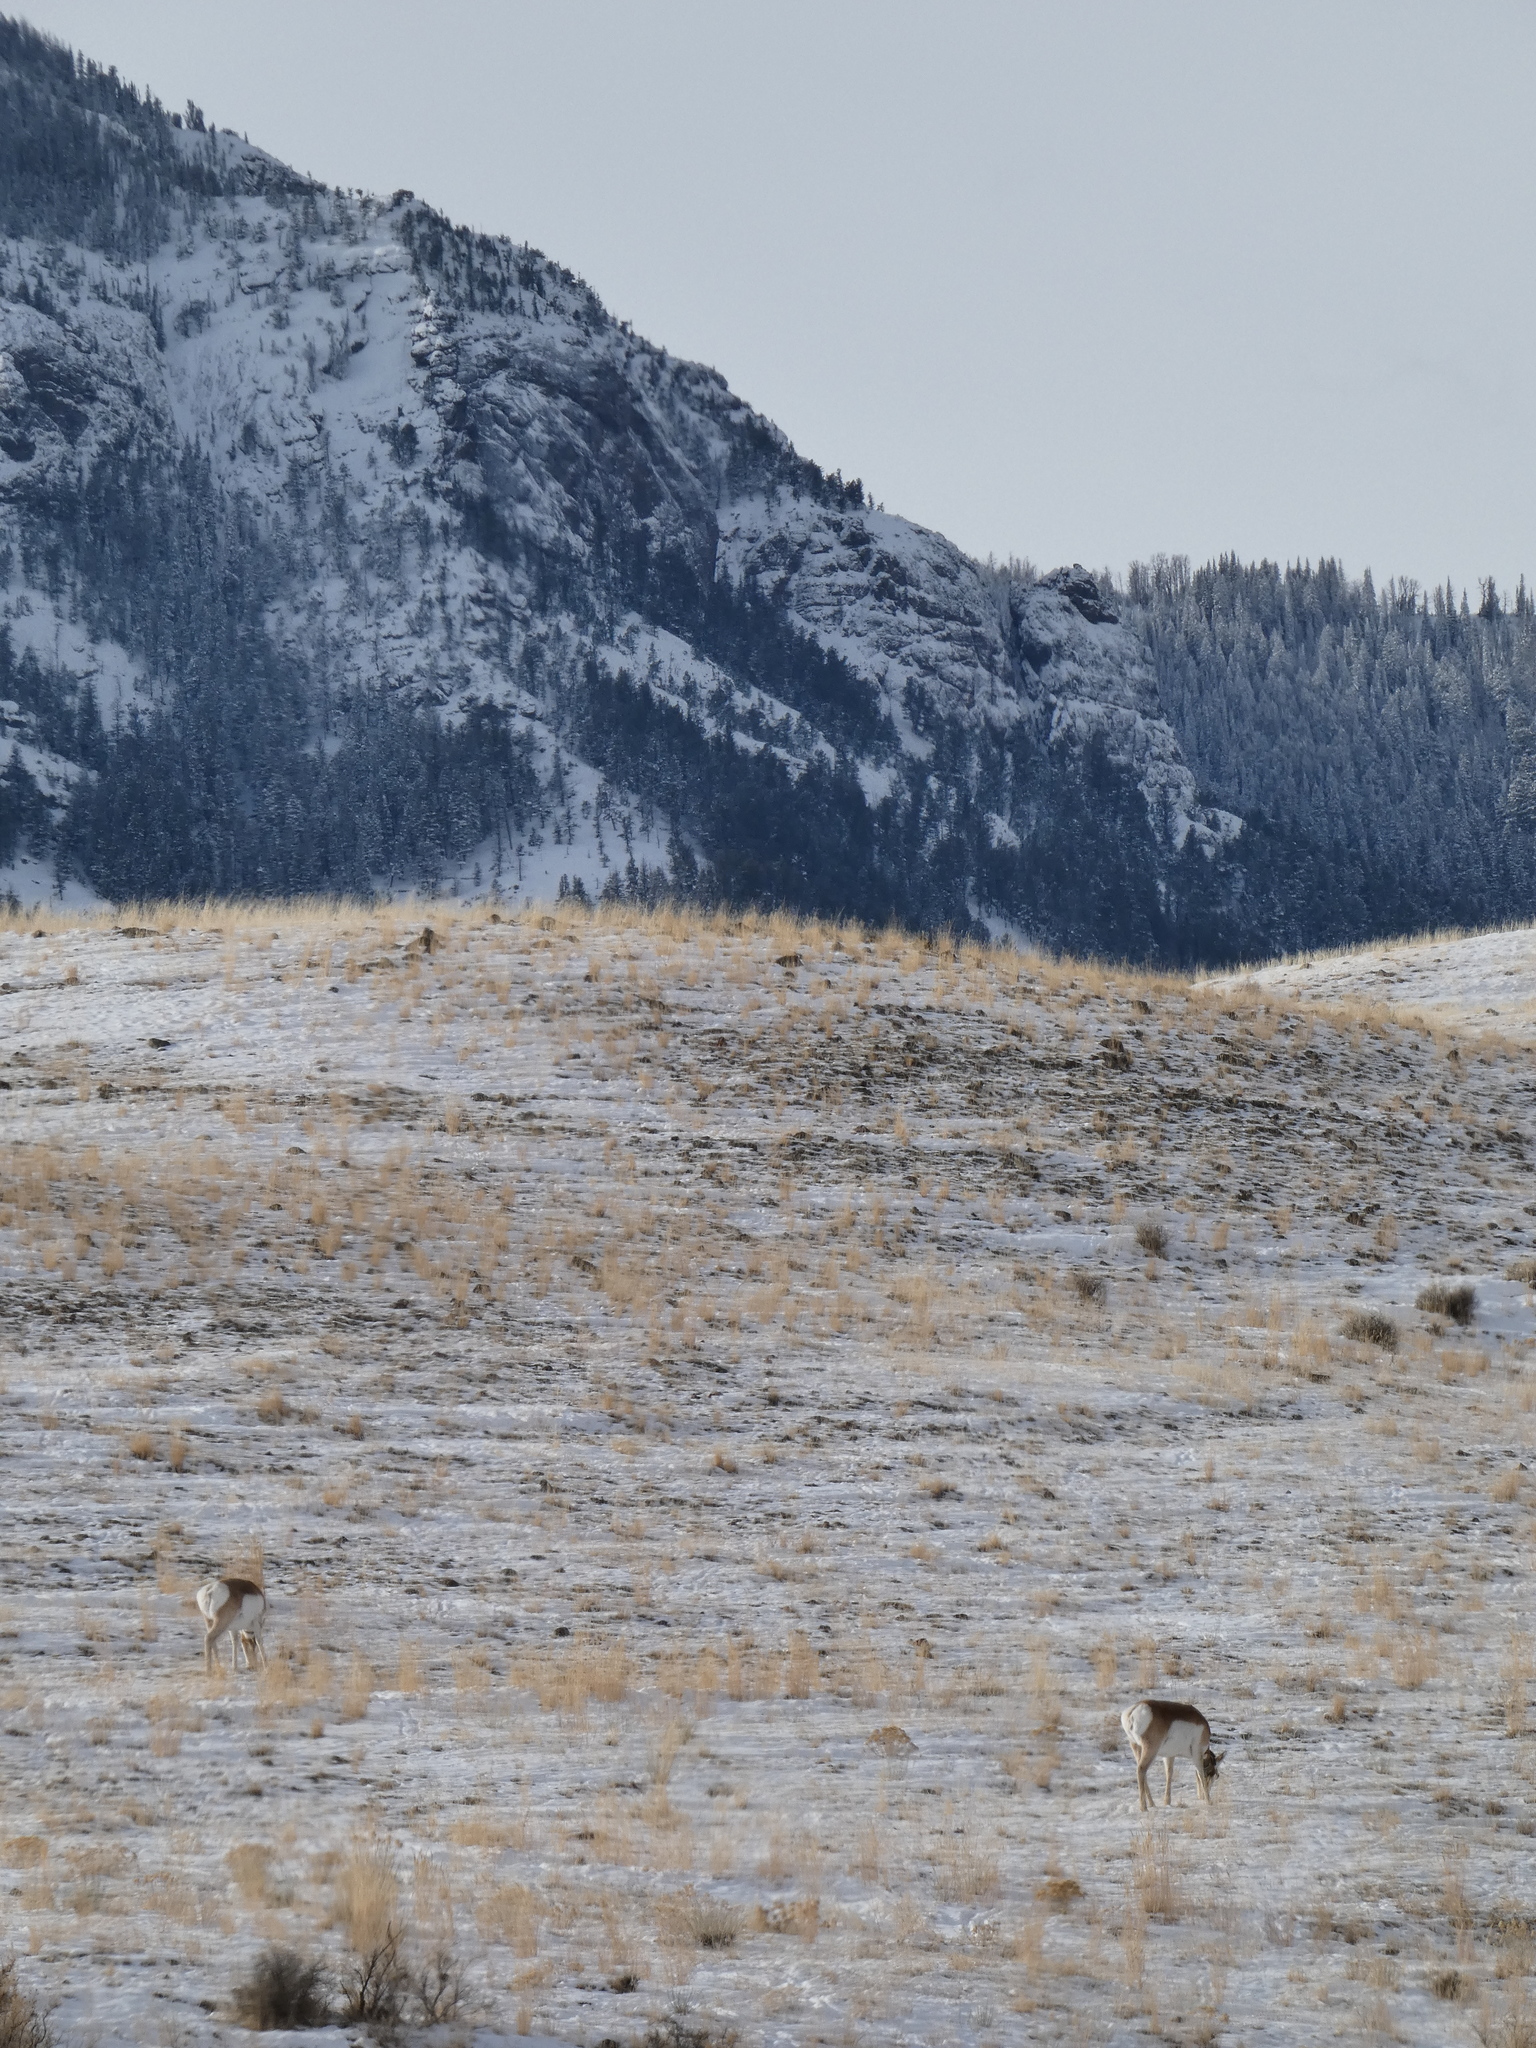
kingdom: Animalia
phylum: Chordata
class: Mammalia
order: Artiodactyla
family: Antilocapridae
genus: Antilocapra
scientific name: Antilocapra americana
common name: Pronghorn
